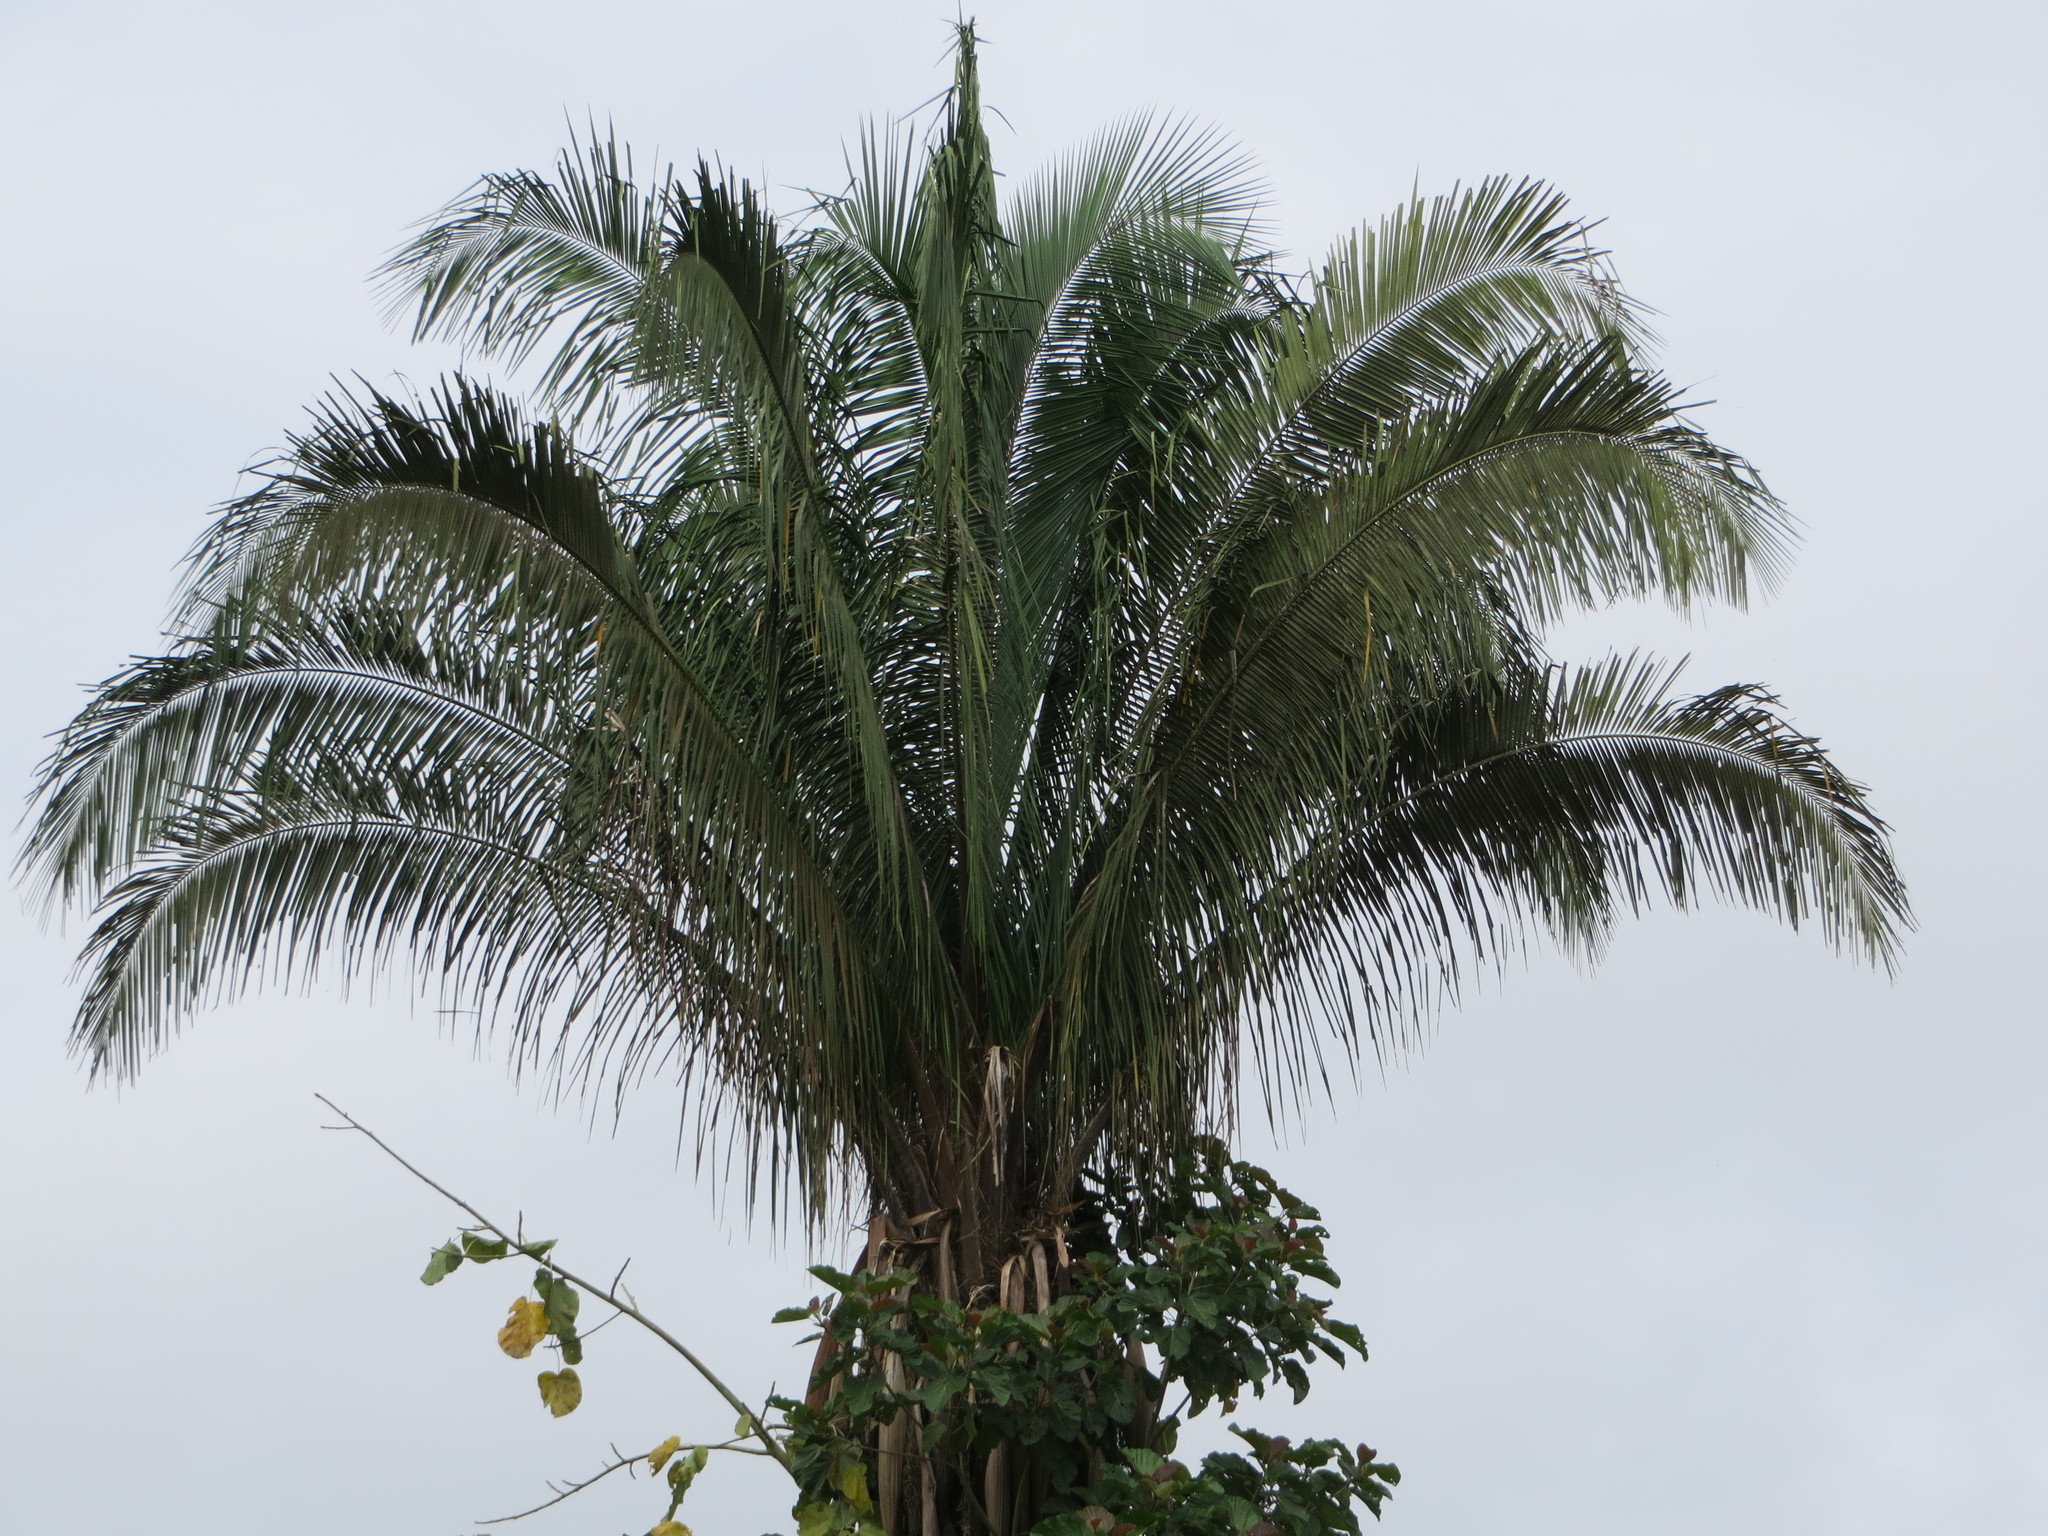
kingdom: Plantae
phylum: Tracheophyta
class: Liliopsida
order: Arecales
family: Arecaceae
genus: Attalea
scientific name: Attalea butyracea
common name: Kuakish
